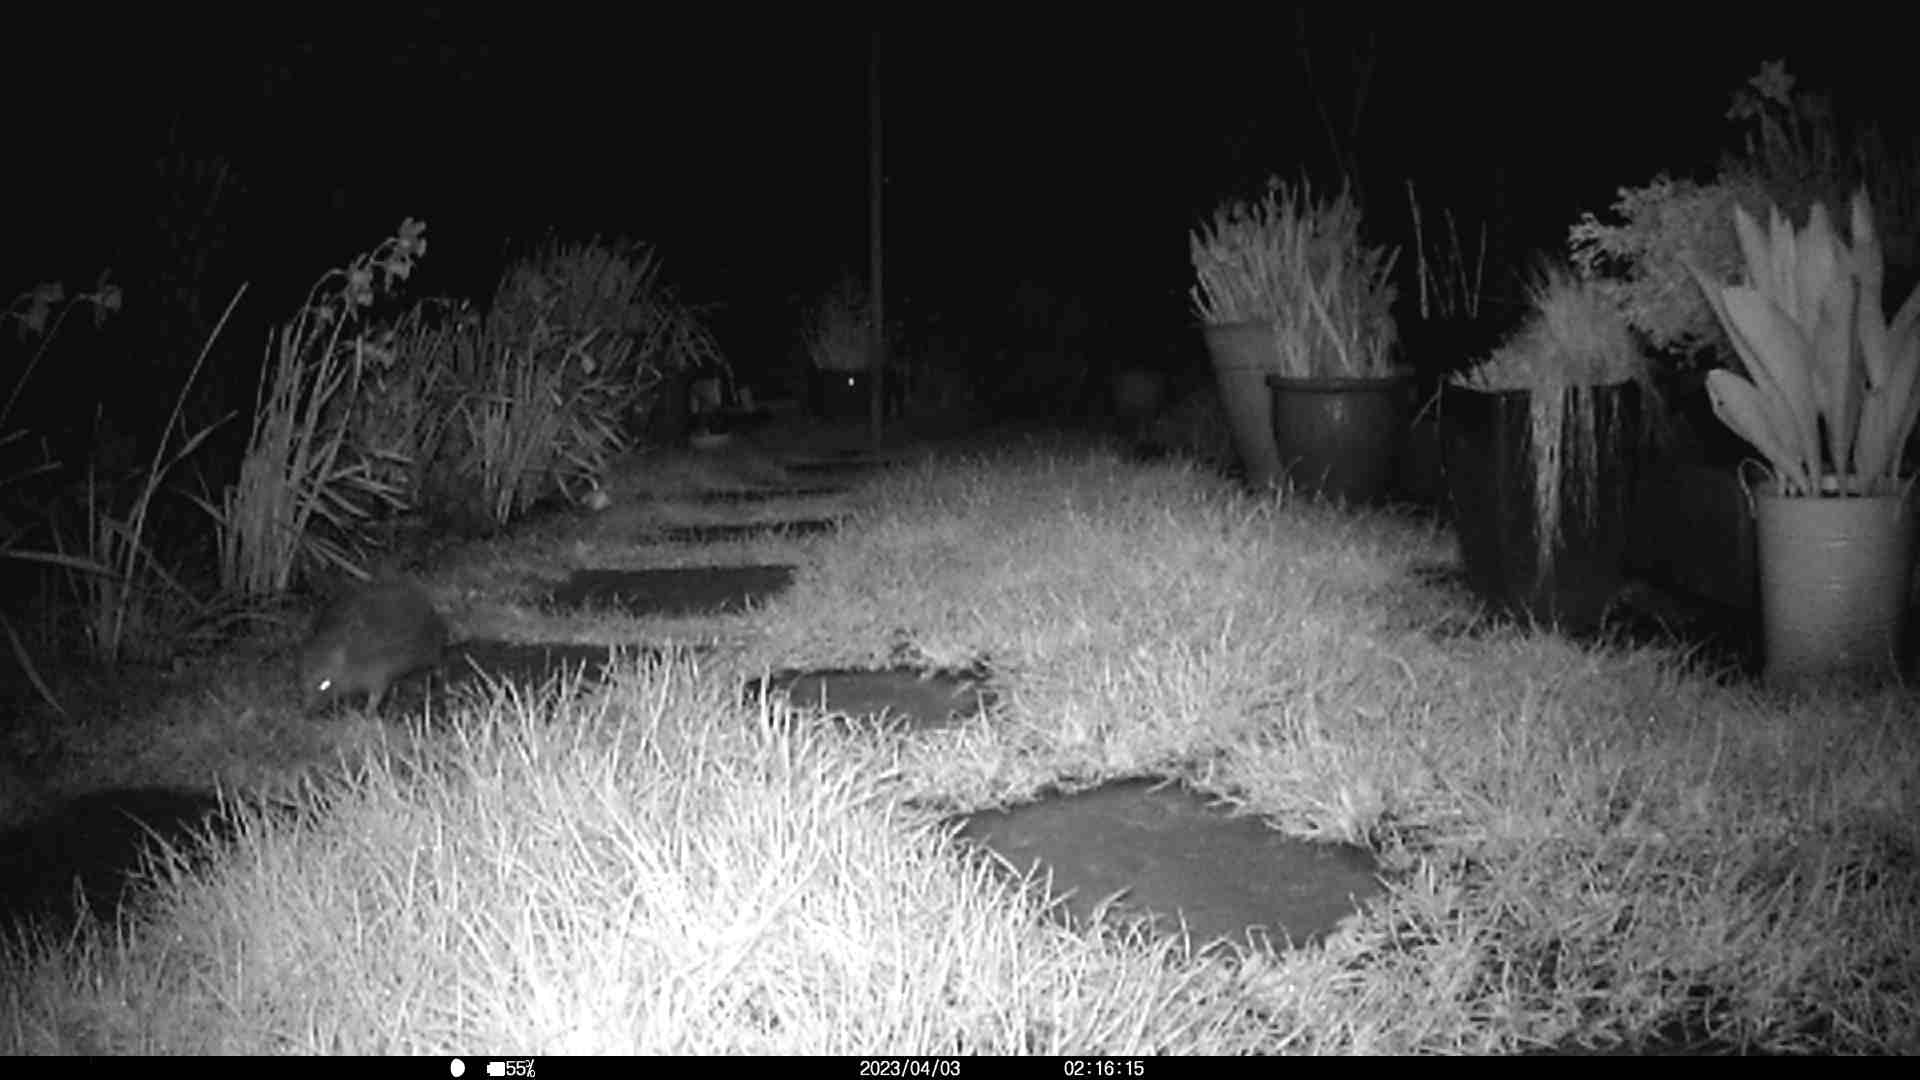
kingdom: Animalia
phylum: Chordata
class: Mammalia
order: Erinaceomorpha
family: Erinaceidae
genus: Erinaceus
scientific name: Erinaceus europaeus
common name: West european hedgehog
